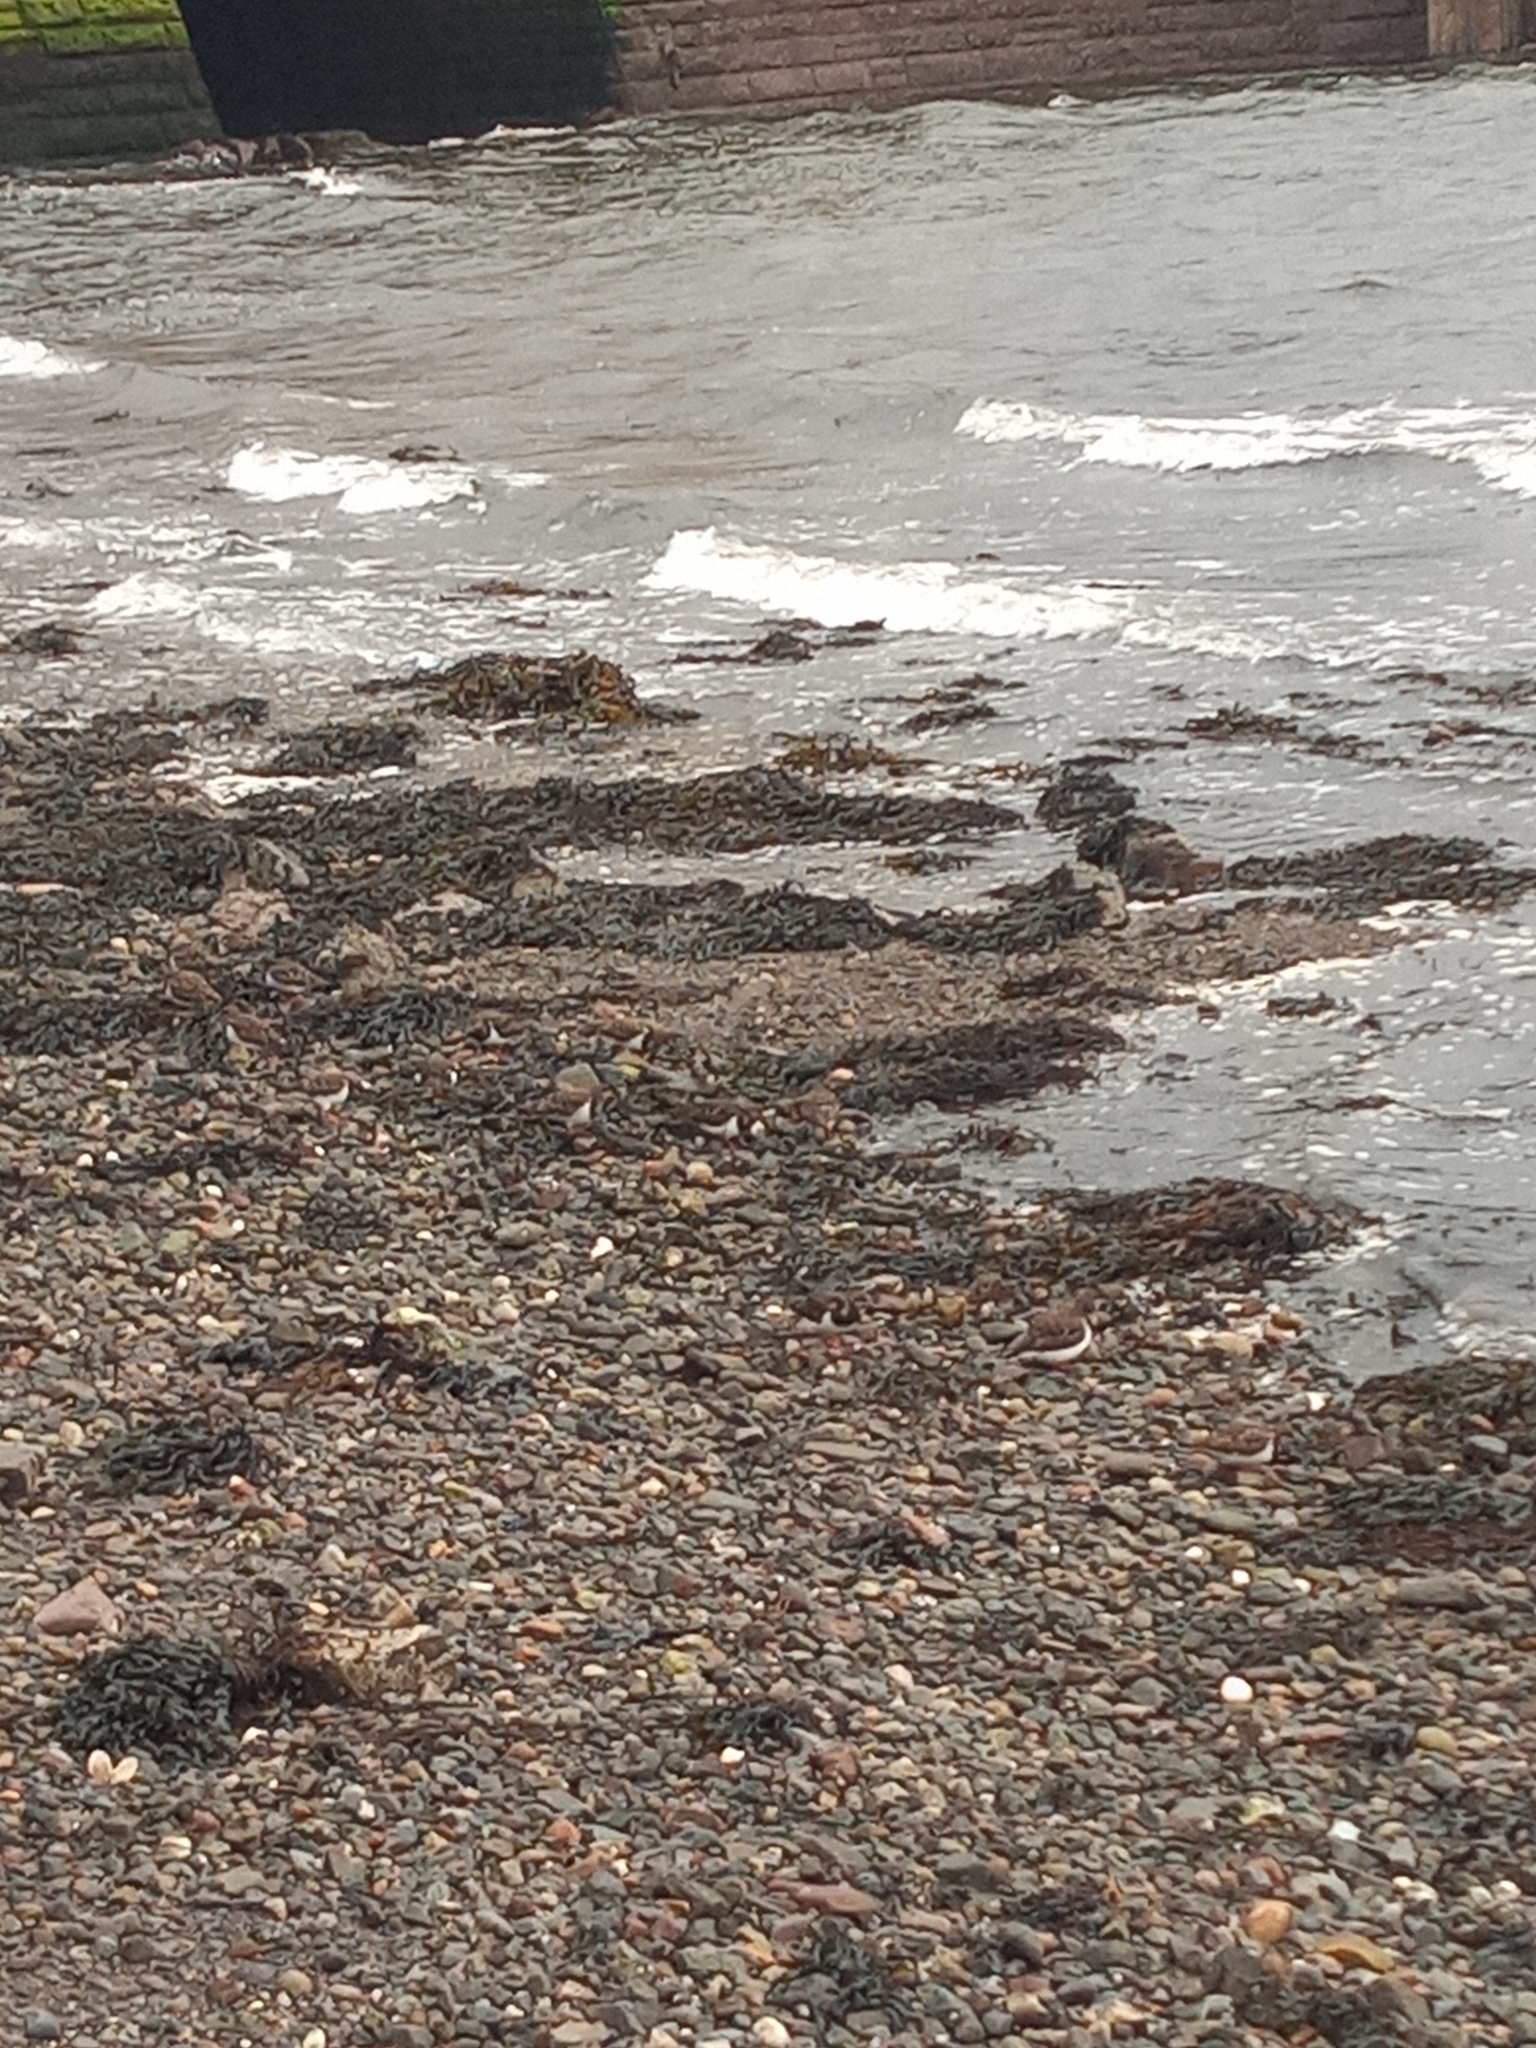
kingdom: Animalia
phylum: Chordata
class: Aves
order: Charadriiformes
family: Scolopacidae
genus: Arenaria
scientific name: Arenaria interpres
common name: Ruddy turnstone
